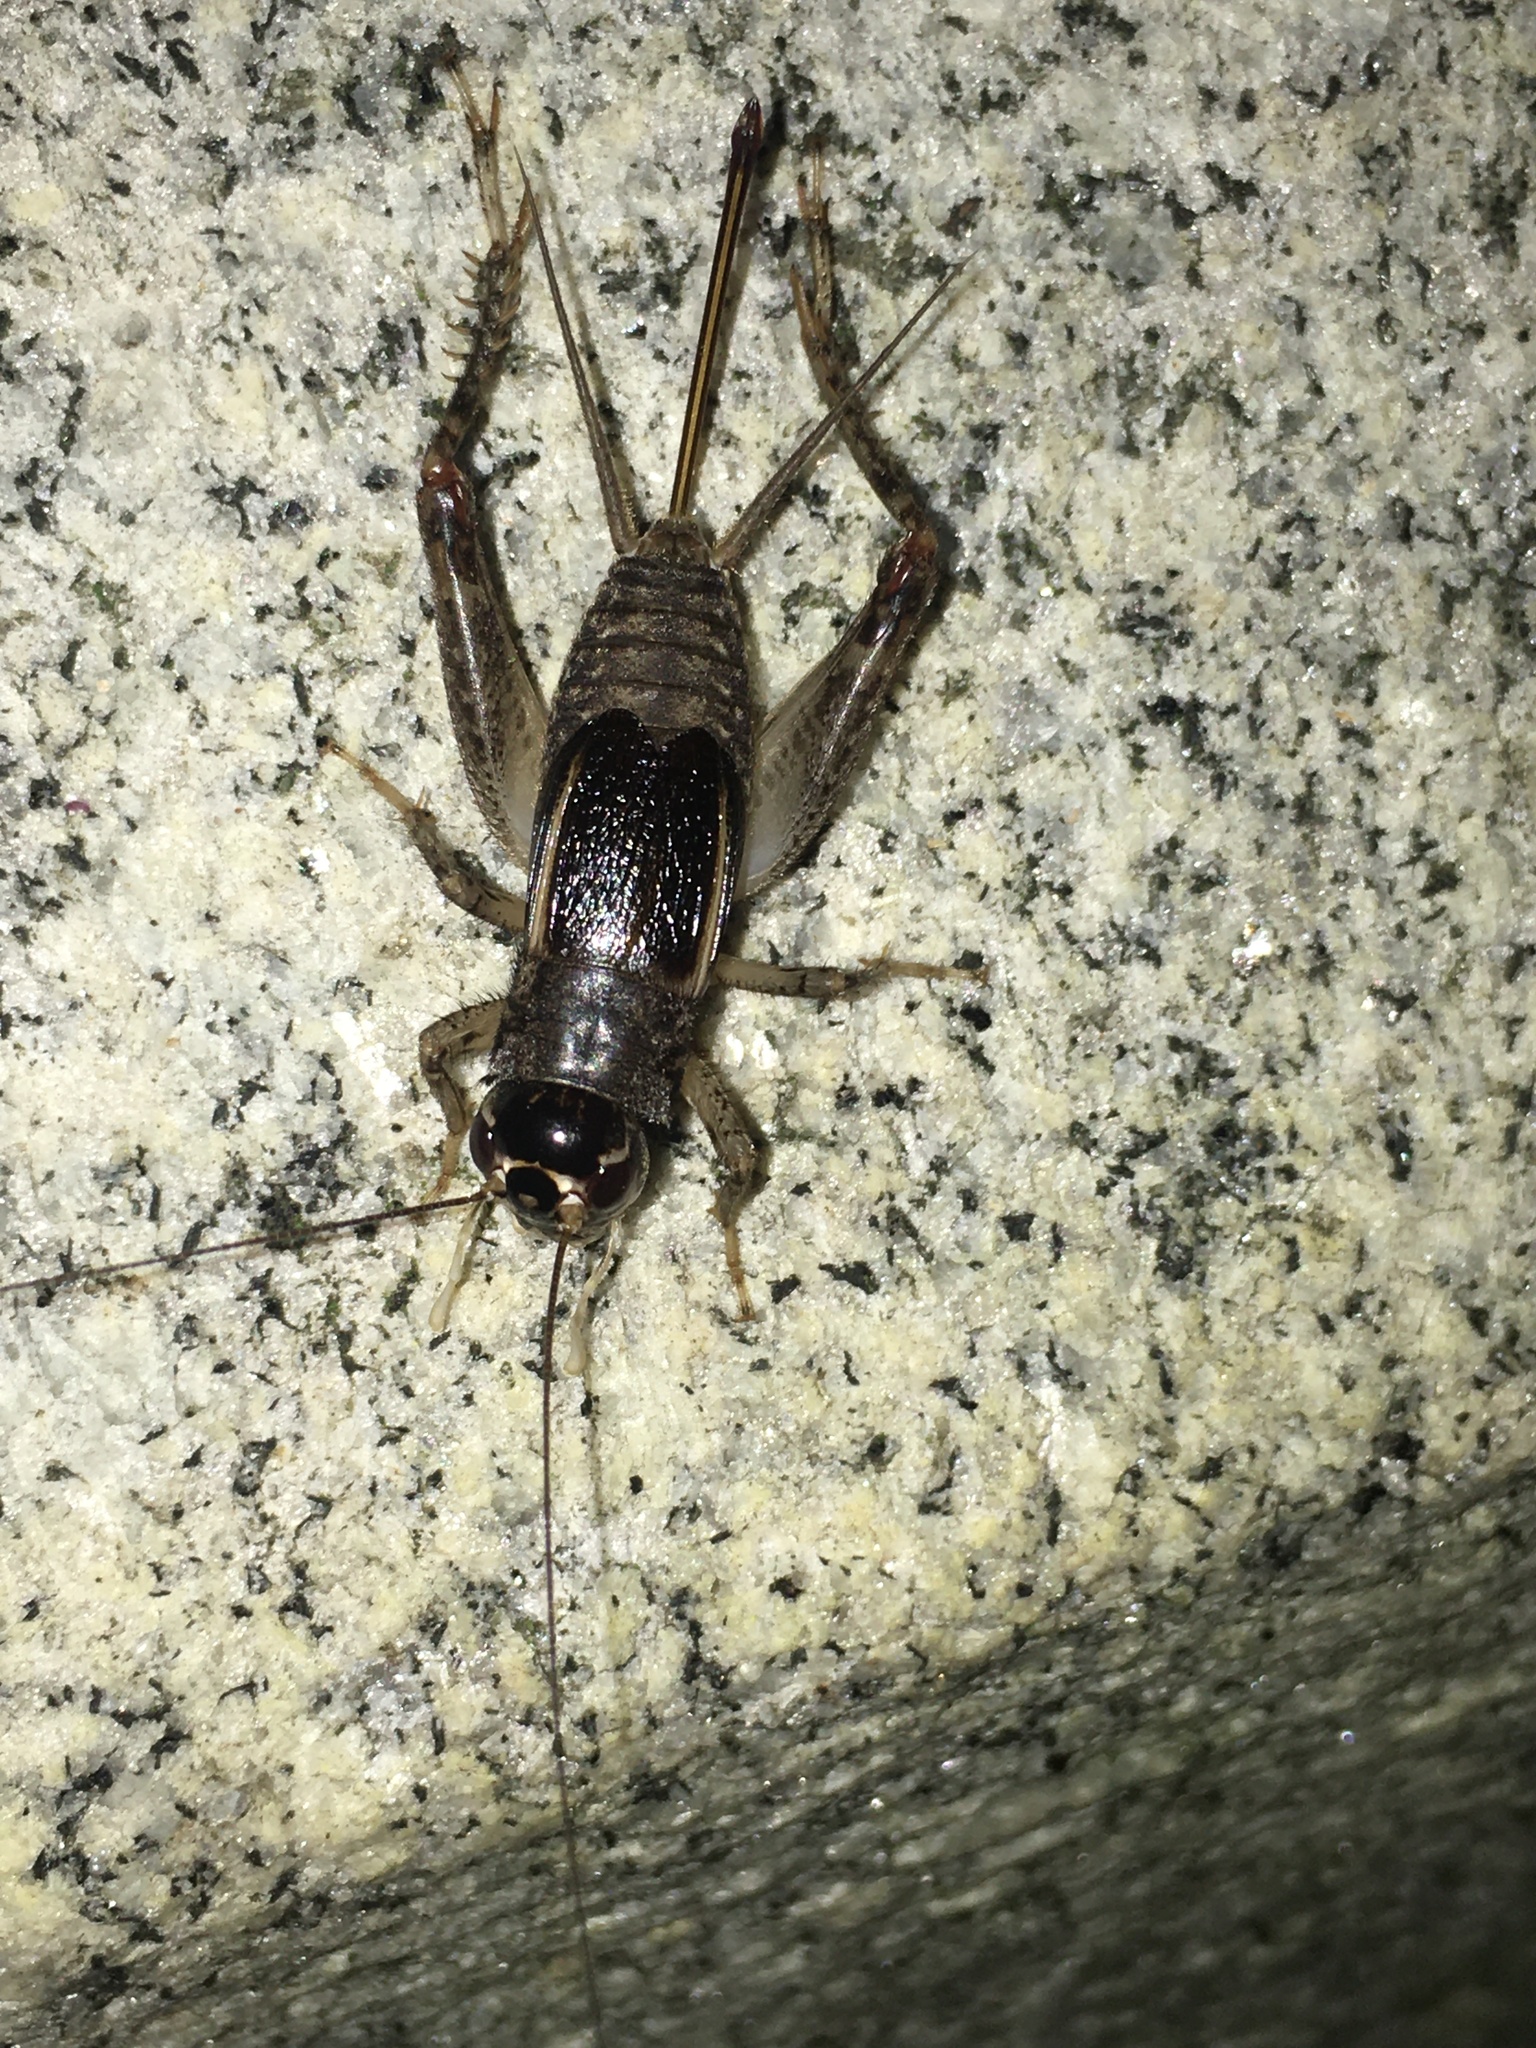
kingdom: Animalia
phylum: Arthropoda
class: Insecta
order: Orthoptera
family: Gryllidae
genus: Velarifictorus
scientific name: Velarifictorus micado
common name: Japanese burrowing cricket
